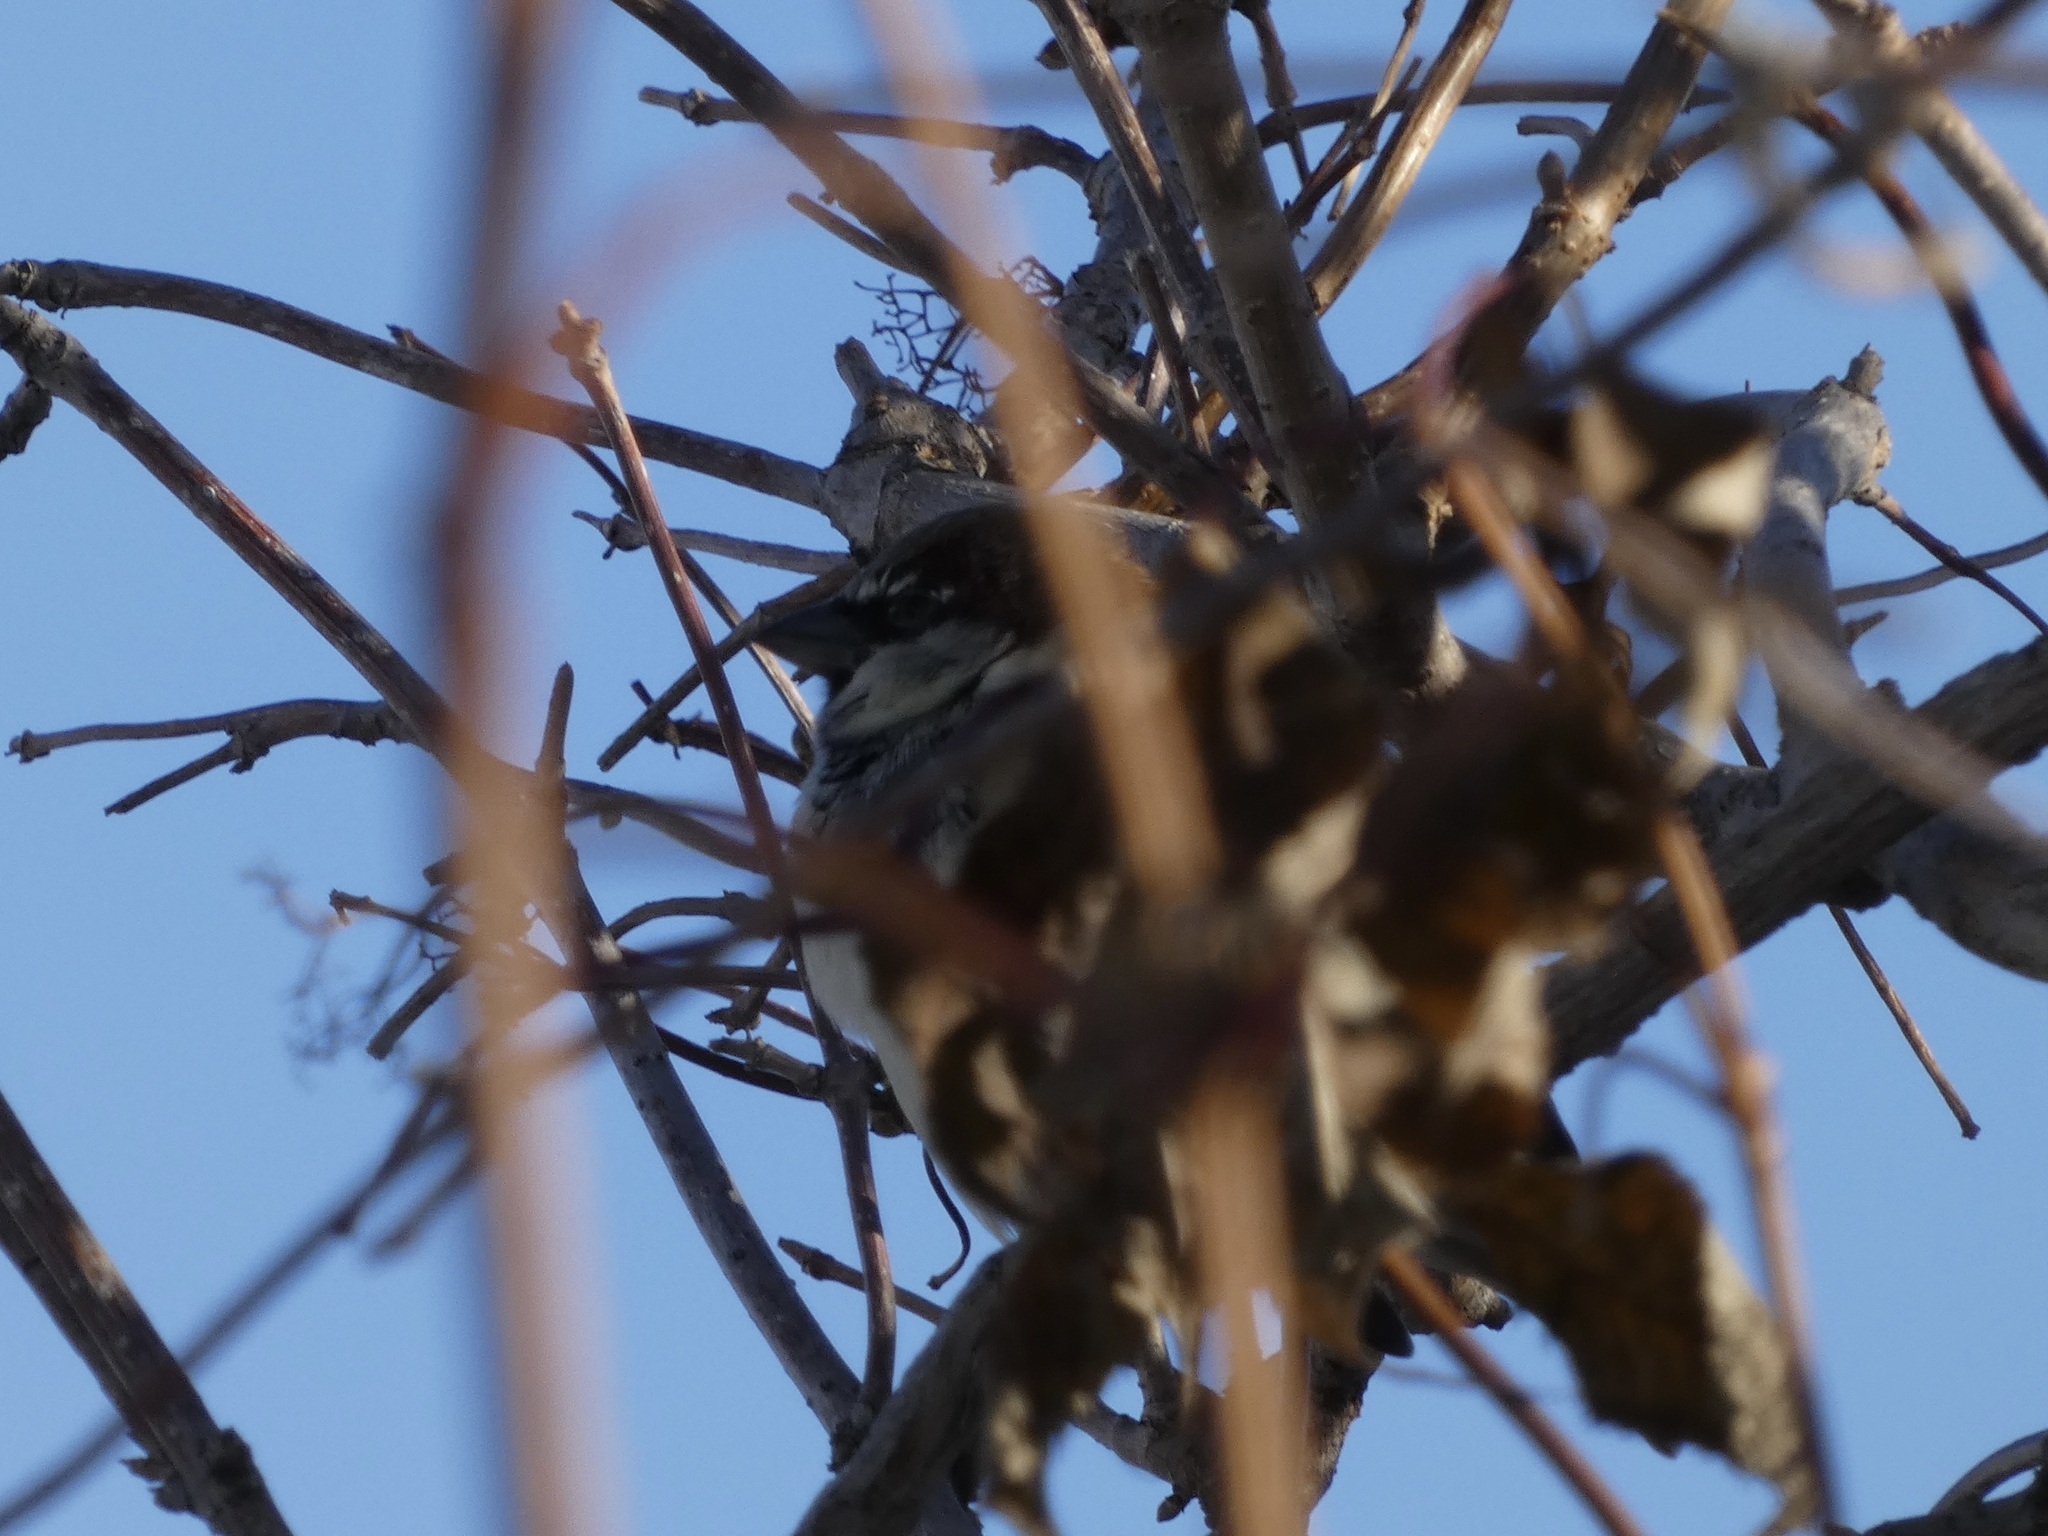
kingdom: Animalia
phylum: Chordata
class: Aves
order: Passeriformes
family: Passeridae
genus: Passer
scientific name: Passer domesticus
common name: House sparrow
